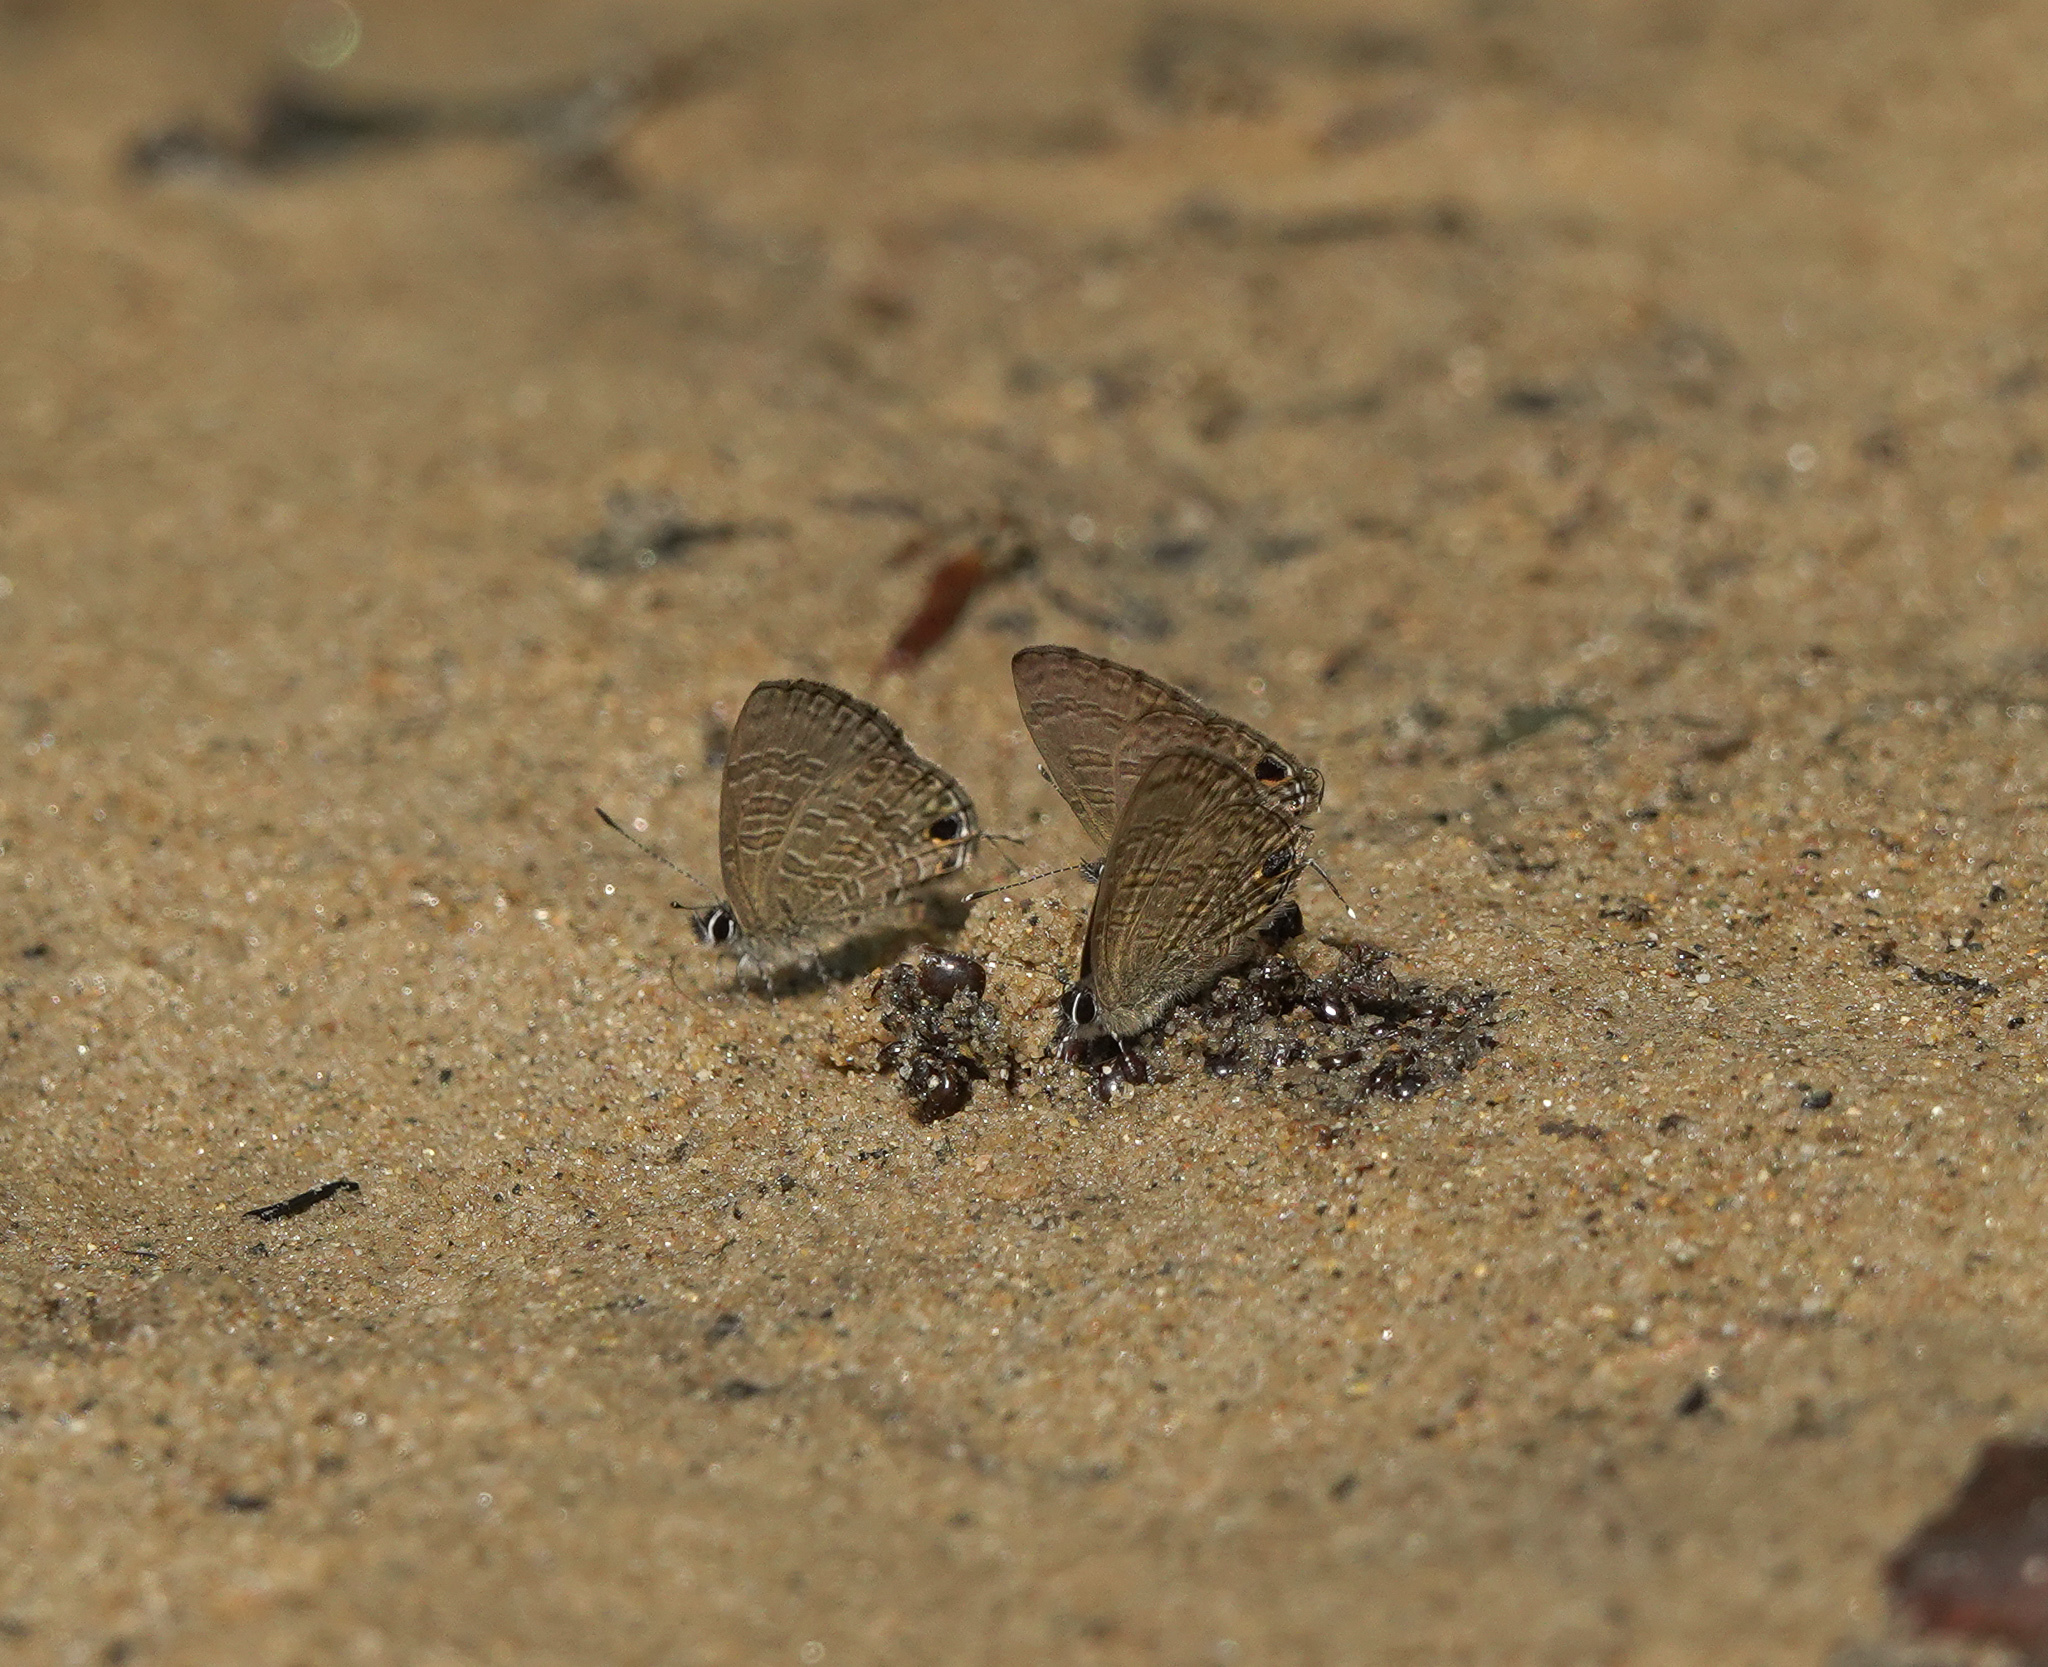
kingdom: Animalia
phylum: Arthropoda
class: Insecta
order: Lepidoptera
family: Lycaenidae
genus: Prosotas
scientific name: Prosotas nora
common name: Common line blue
